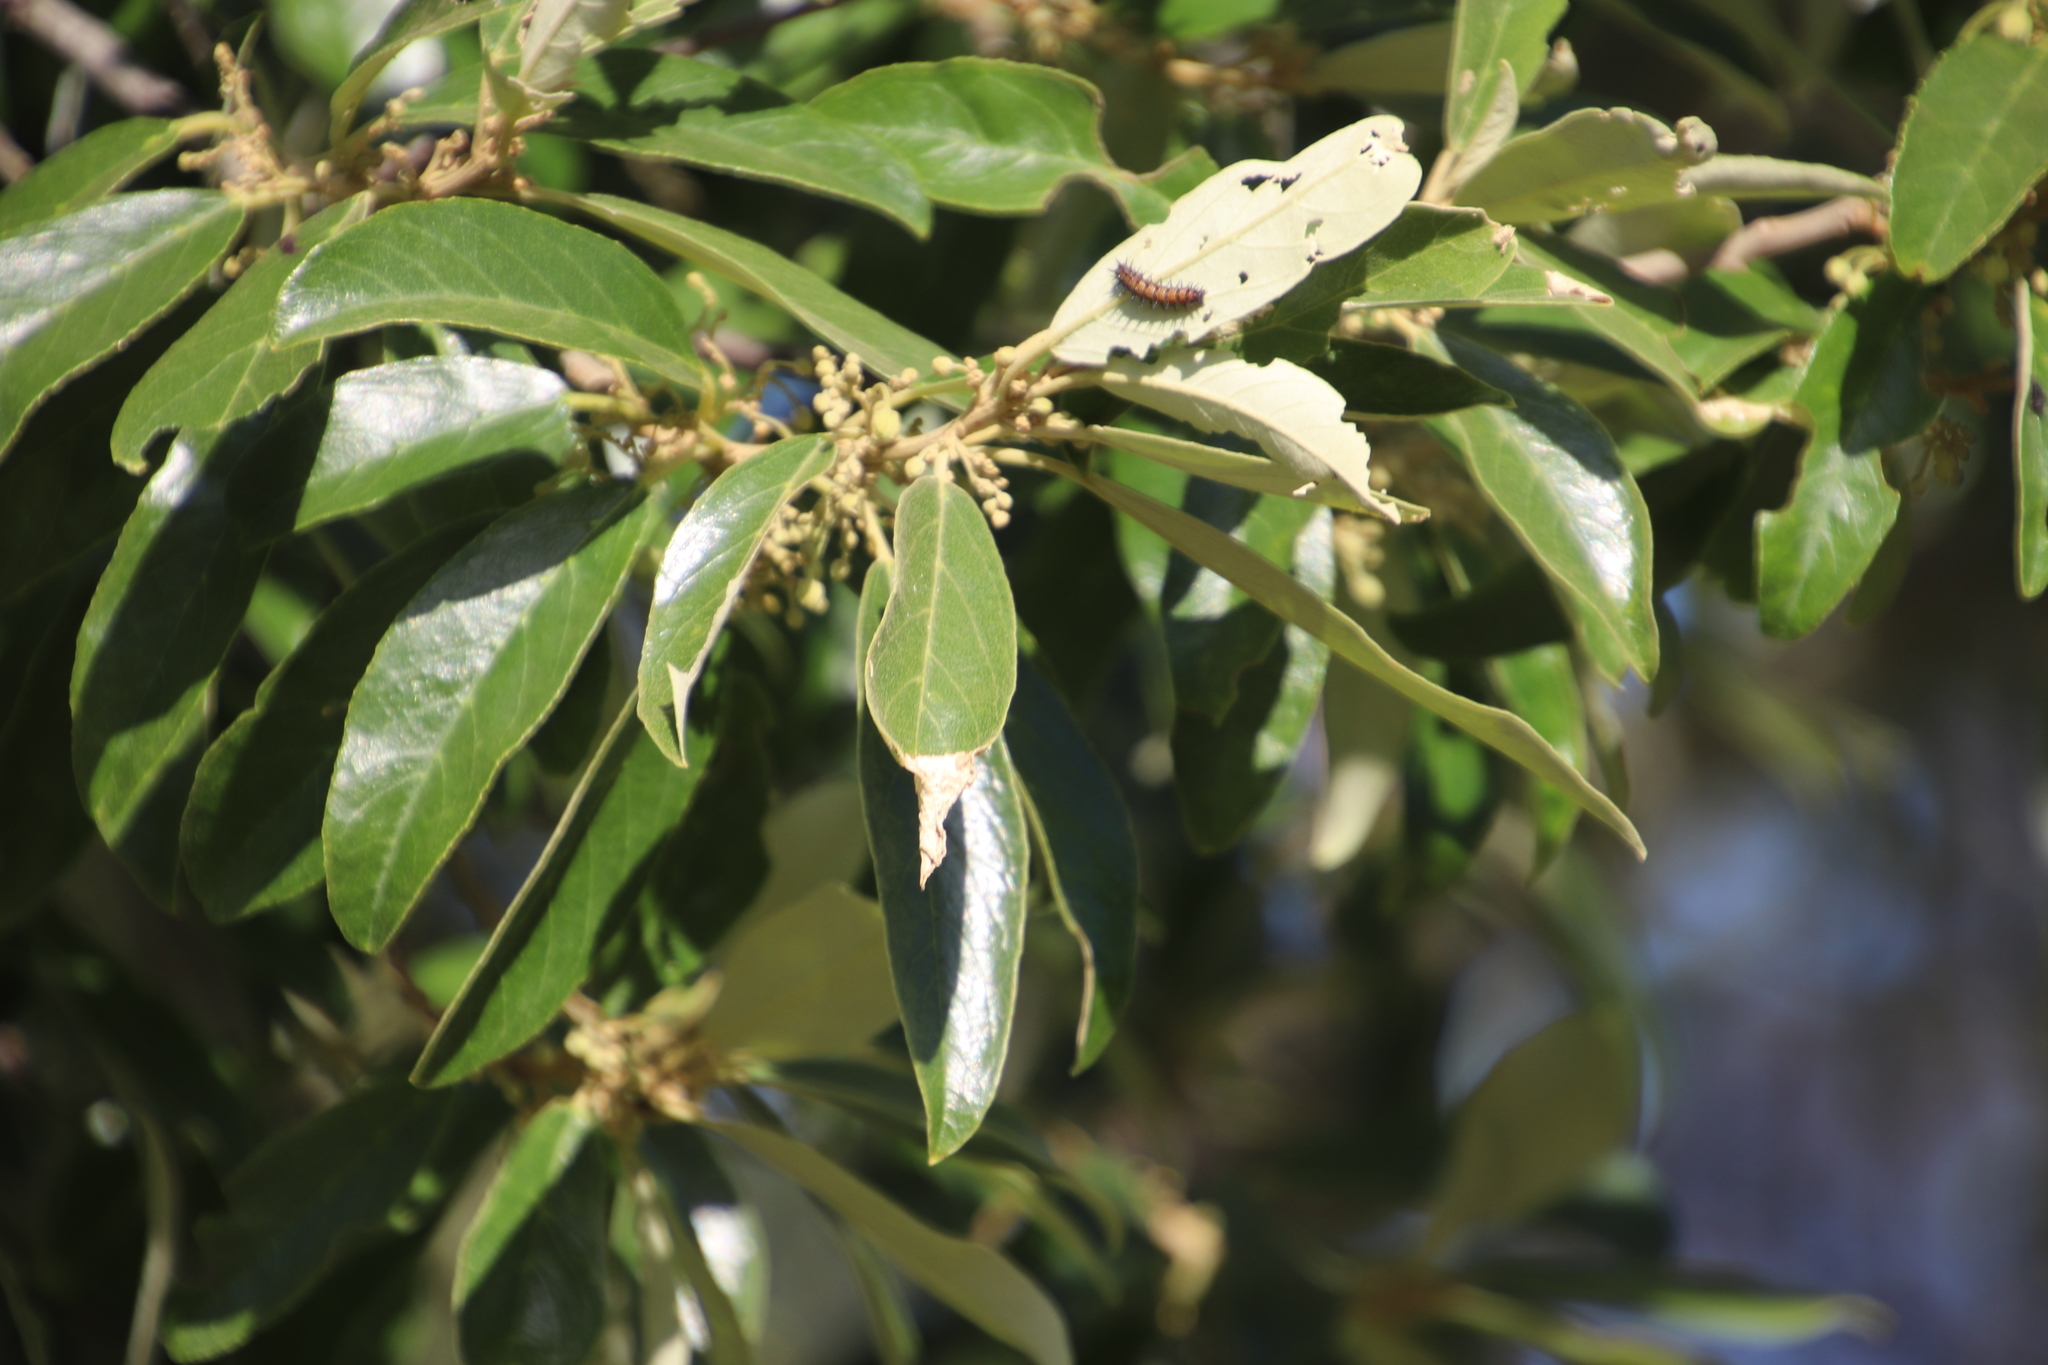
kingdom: Plantae
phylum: Tracheophyta
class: Magnoliopsida
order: Malpighiales
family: Achariaceae
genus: Kiggelaria
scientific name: Kiggelaria africana
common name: Wild peach
